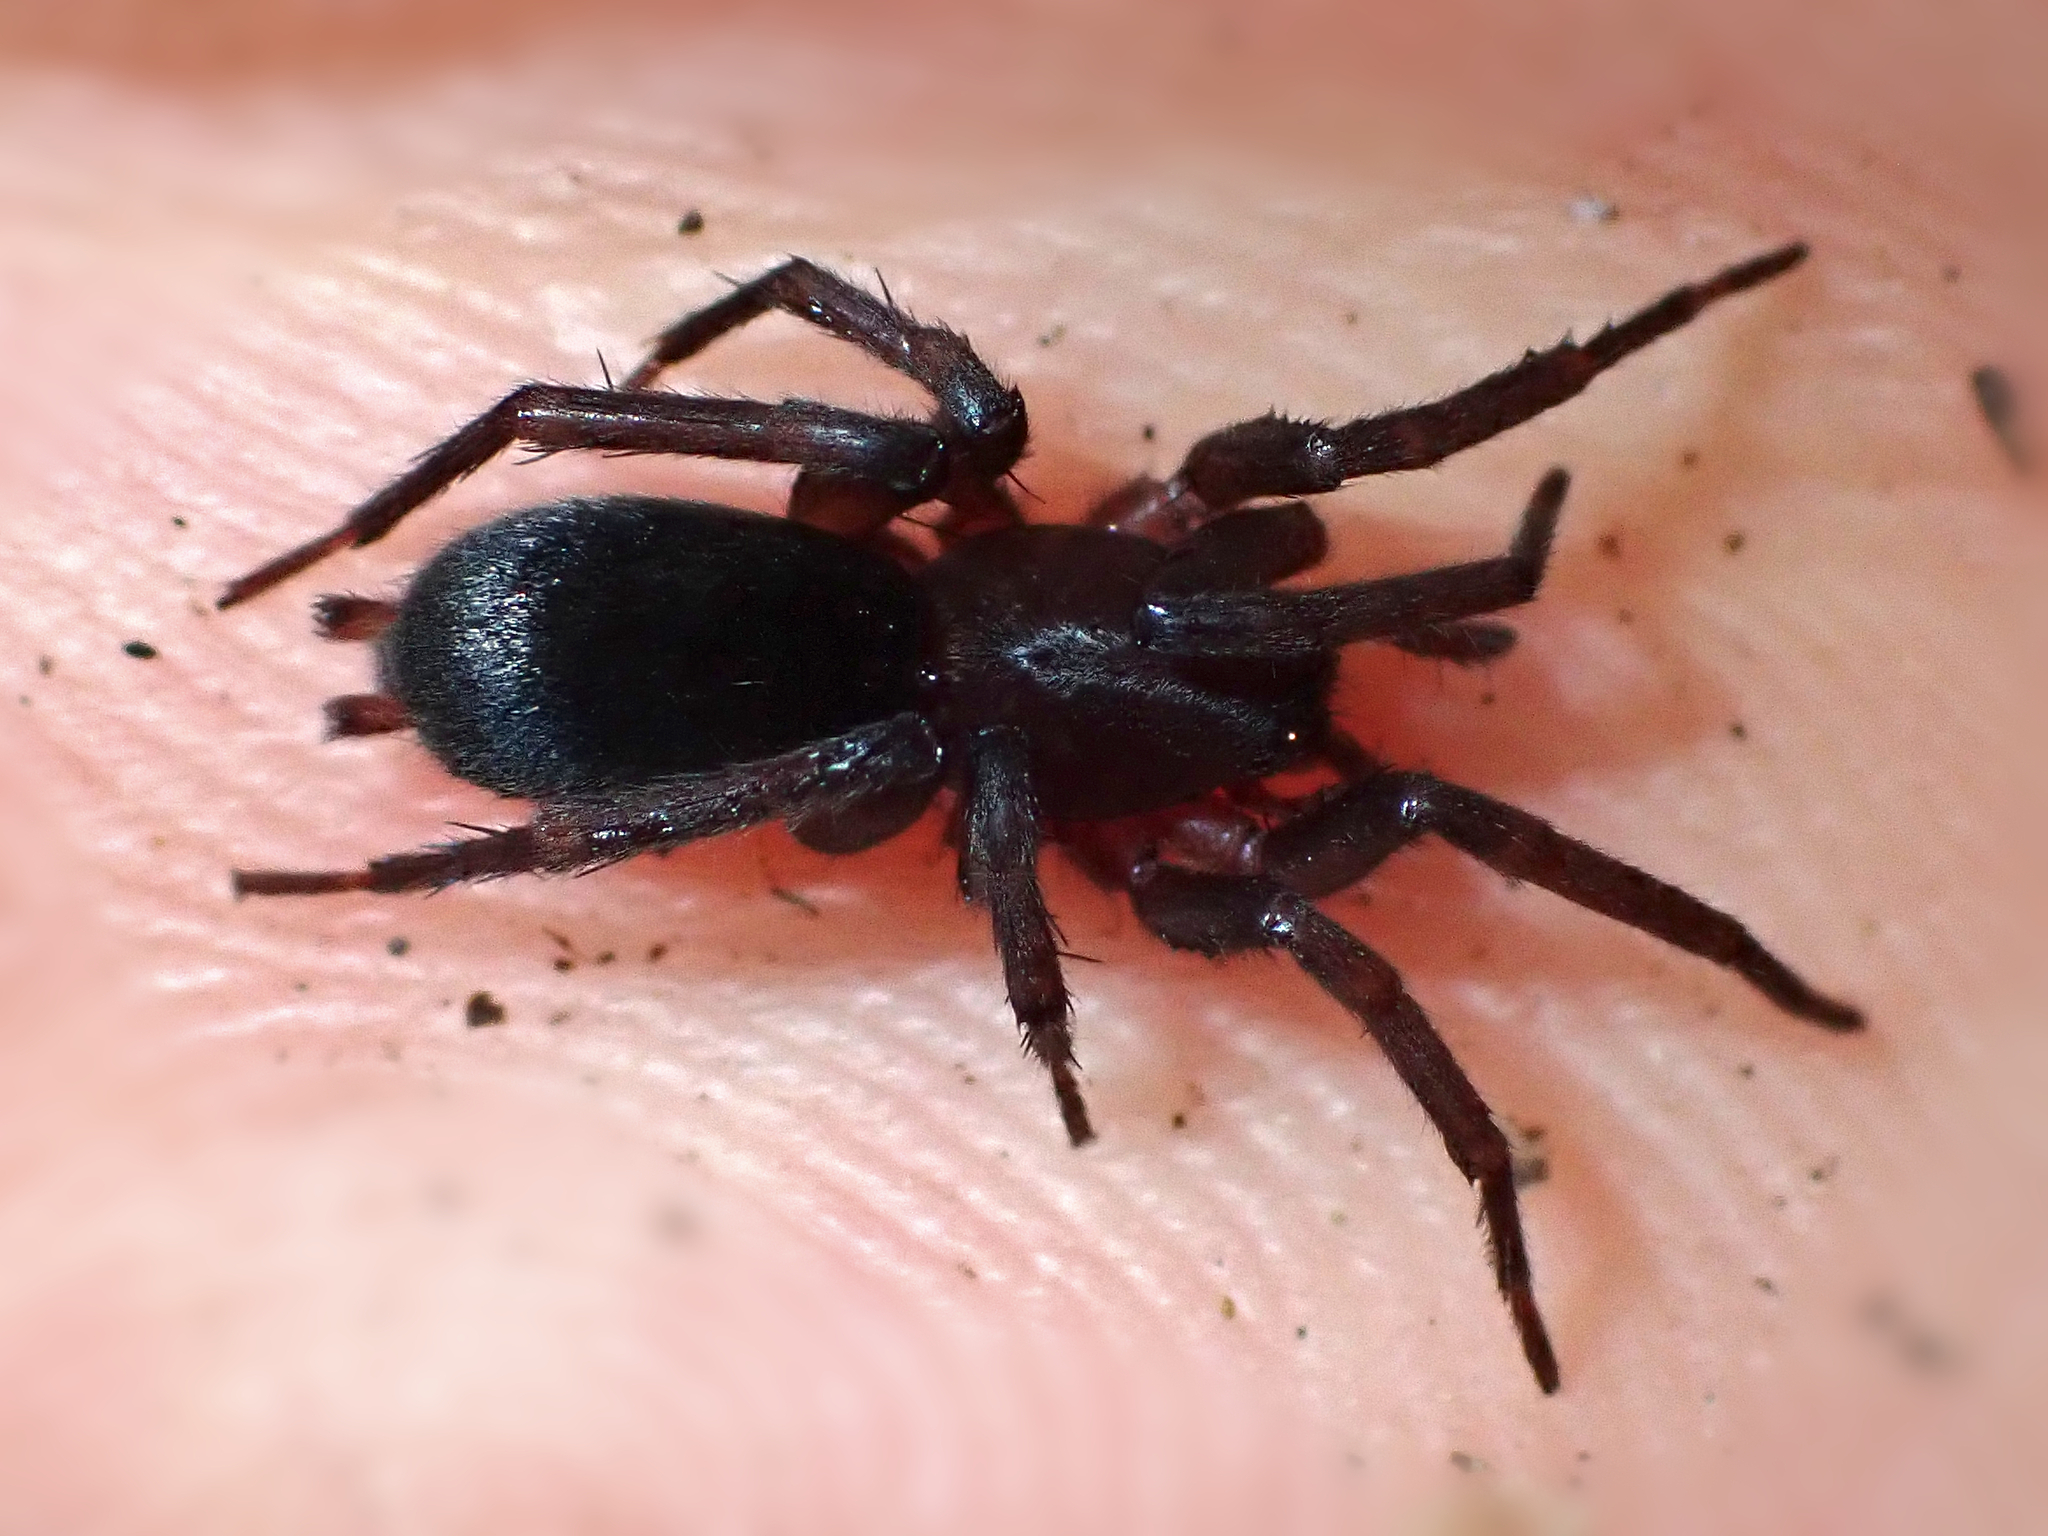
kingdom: Animalia
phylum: Arthropoda
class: Arachnida
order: Araneae
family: Gnaphosidae
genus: Hypodrassodes
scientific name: Hypodrassodes maoricus
